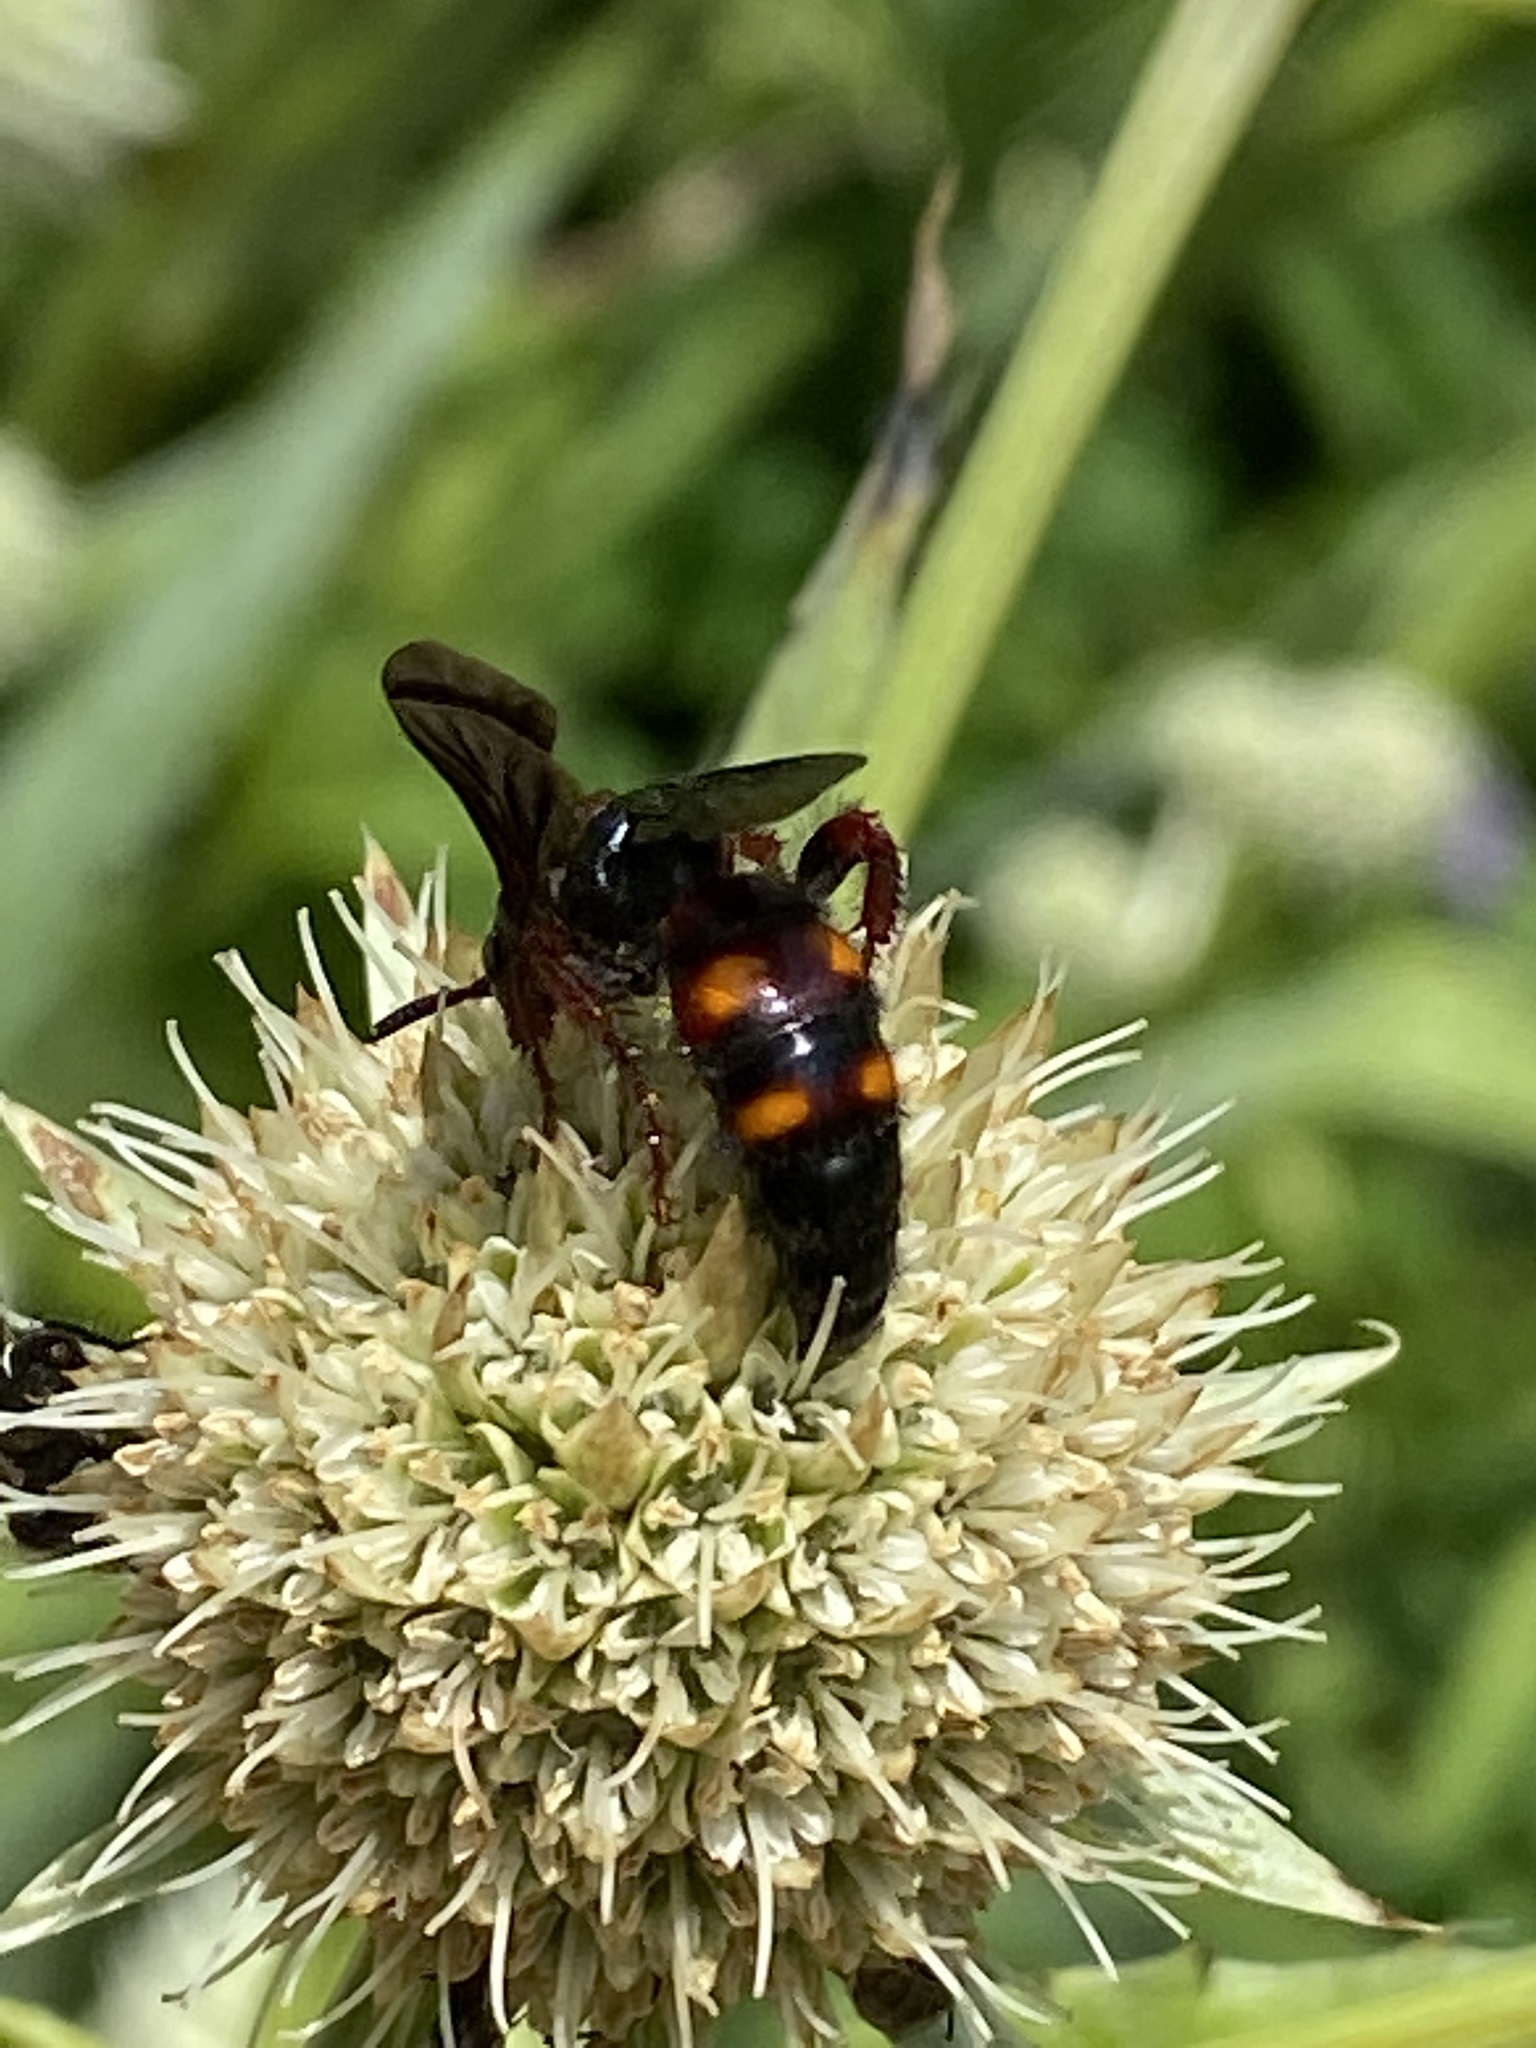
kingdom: Animalia
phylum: Arthropoda
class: Insecta
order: Hymenoptera
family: Scoliidae
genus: Scolia
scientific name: Scolia nobilitata
